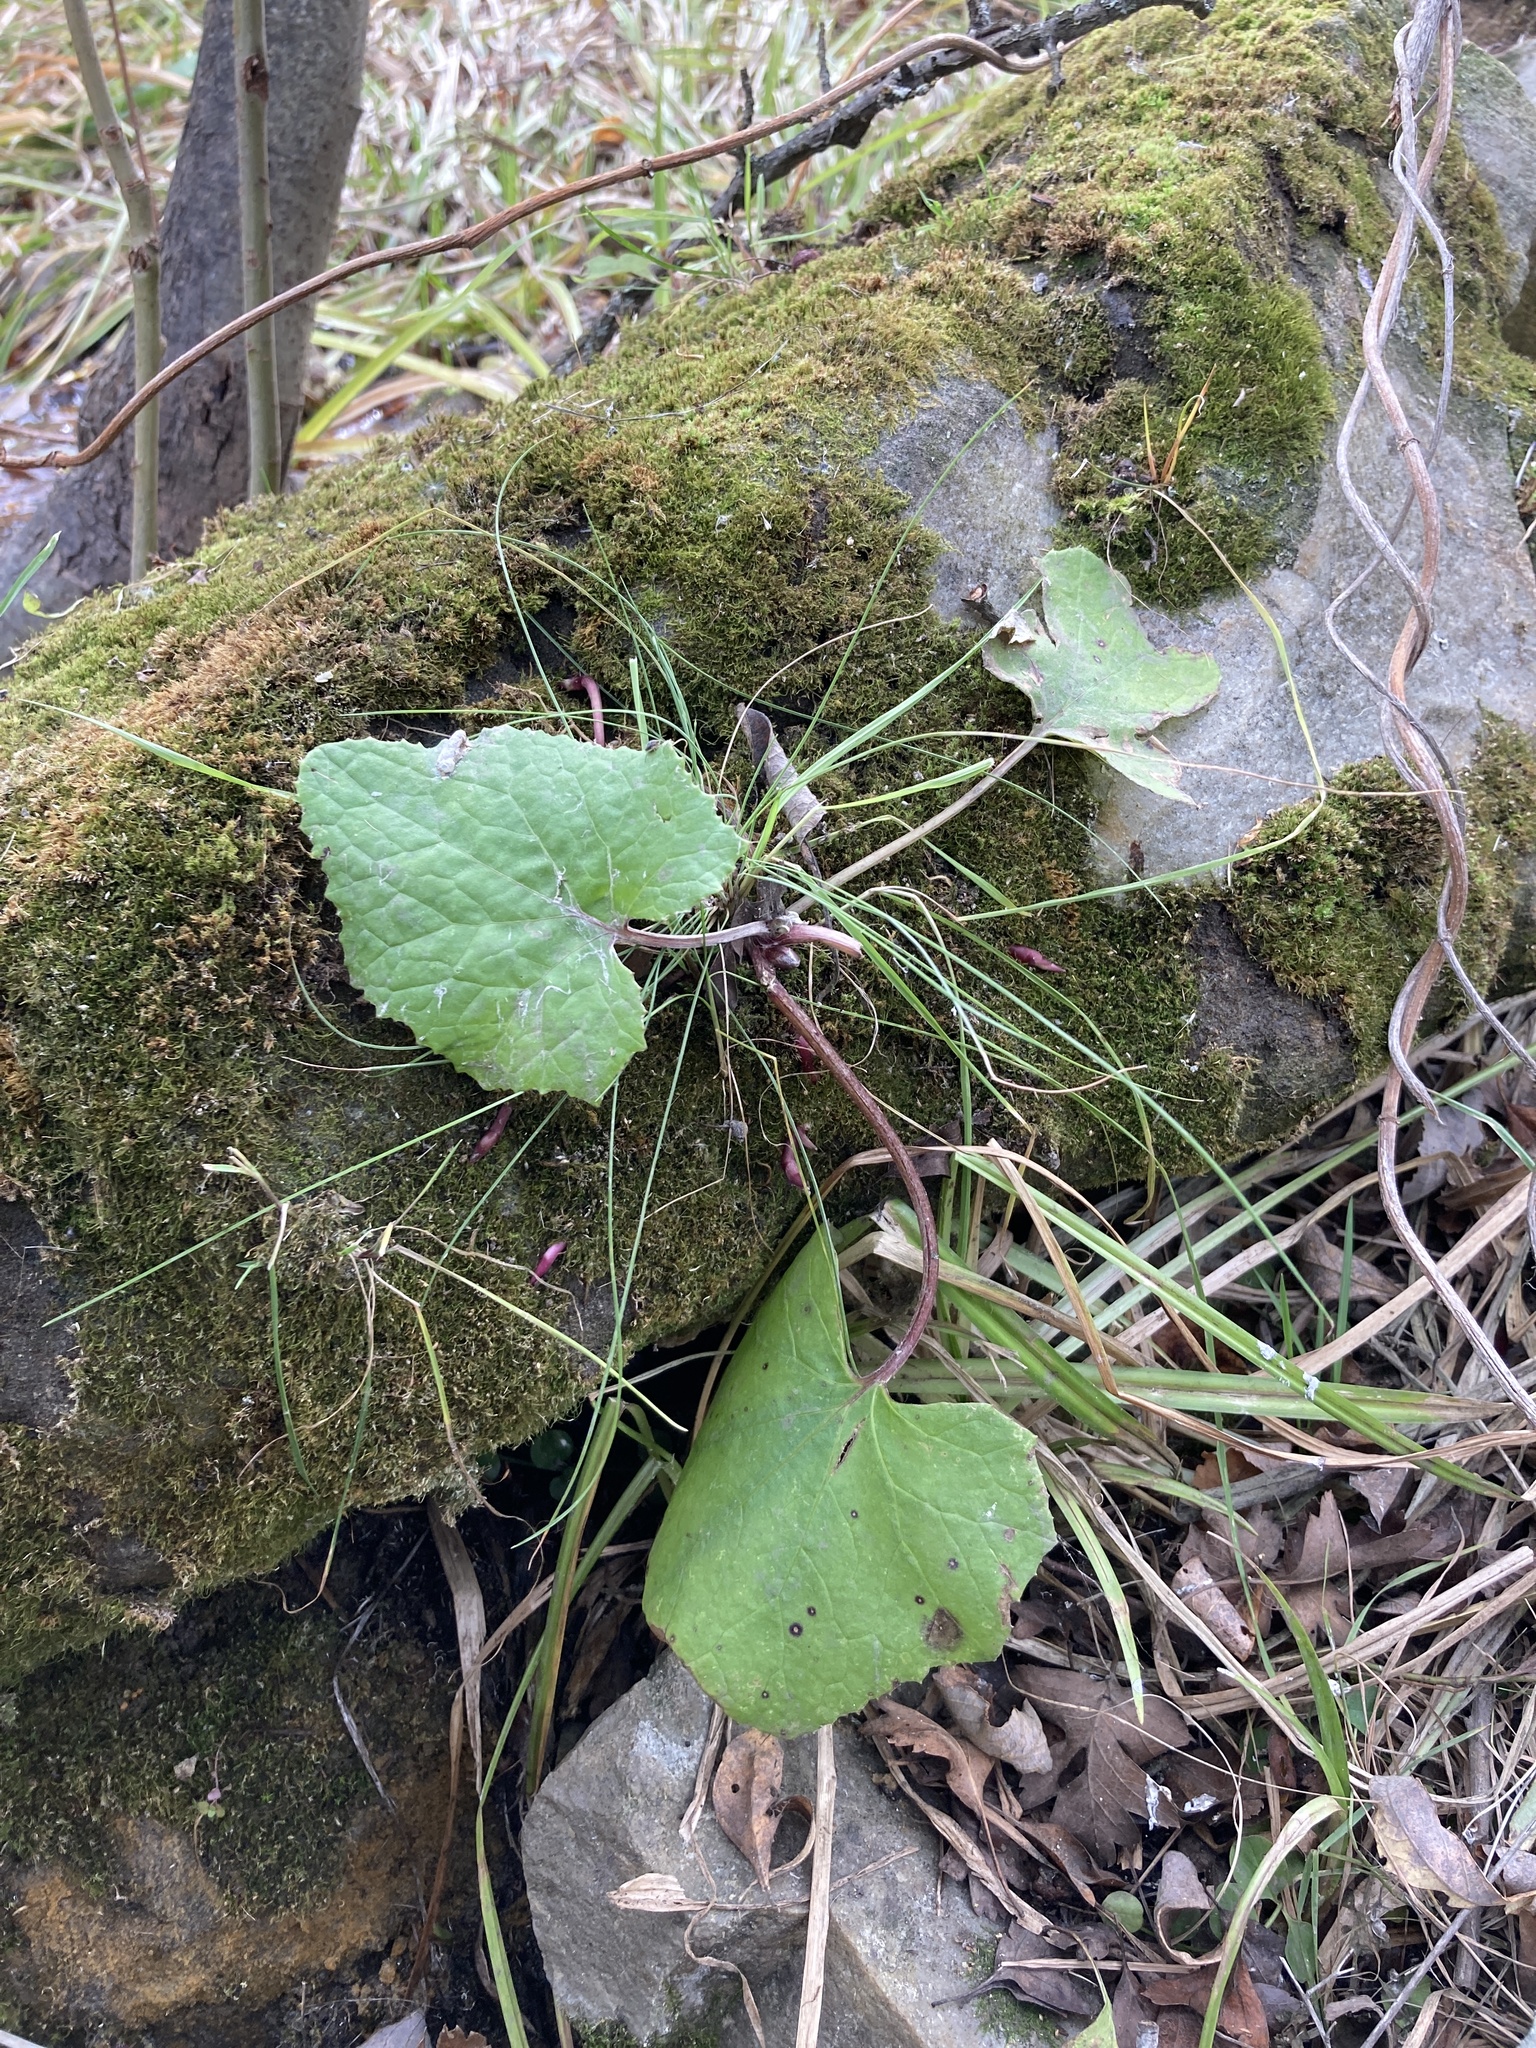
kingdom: Plantae
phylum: Tracheophyta
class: Magnoliopsida
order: Asterales
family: Asteraceae
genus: Tussilago
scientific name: Tussilago farfara
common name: Coltsfoot
